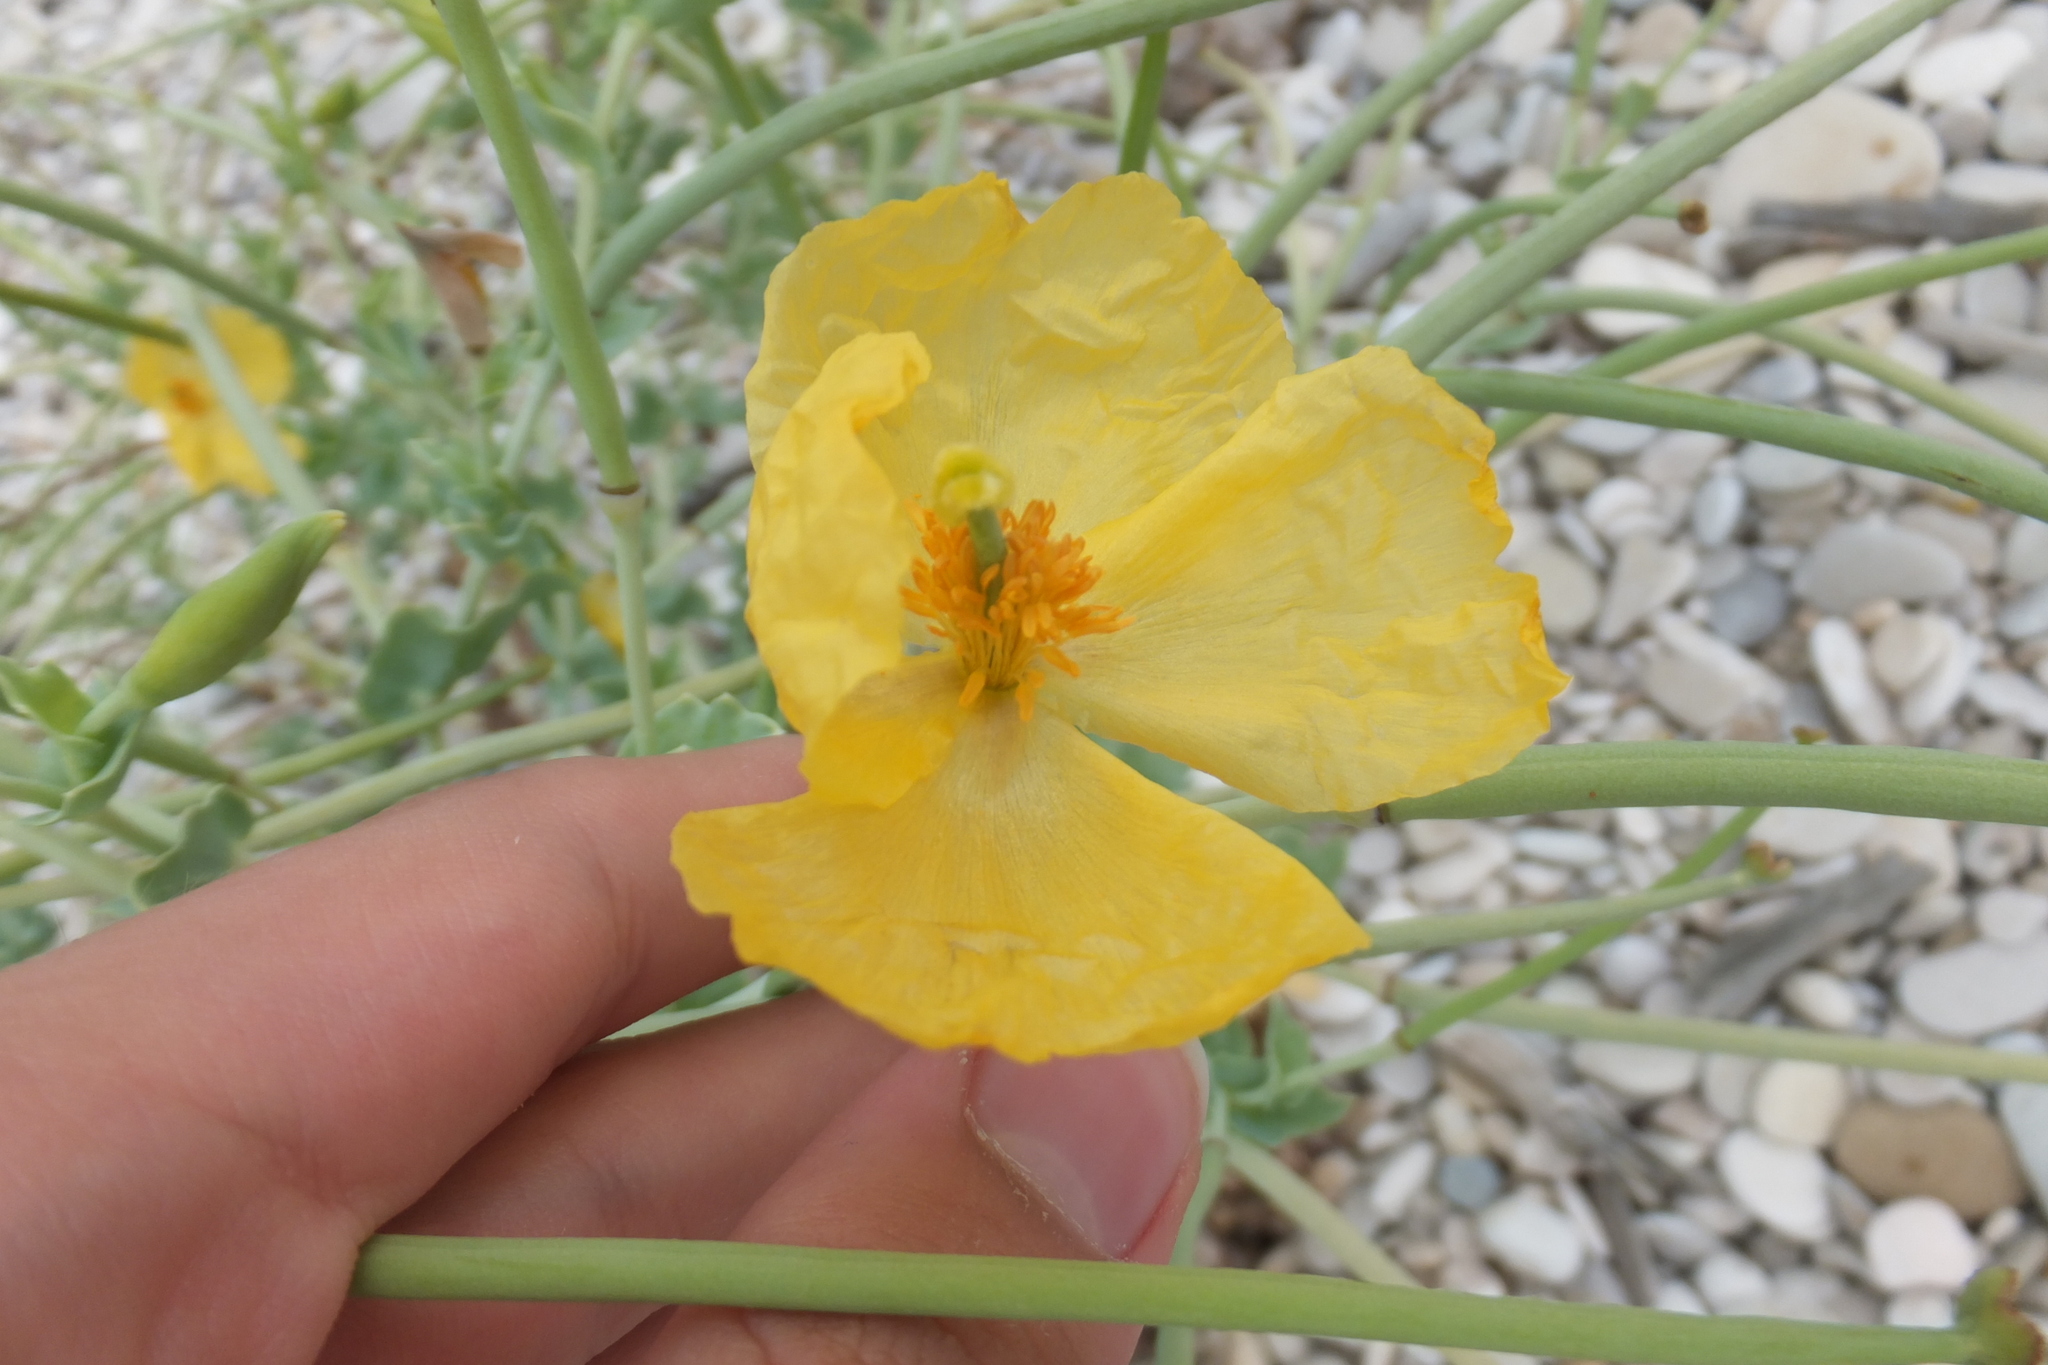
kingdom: Plantae
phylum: Tracheophyta
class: Magnoliopsida
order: Ranunculales
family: Papaveraceae
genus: Glaucium
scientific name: Glaucium flavum
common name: Yellow horned-poppy
